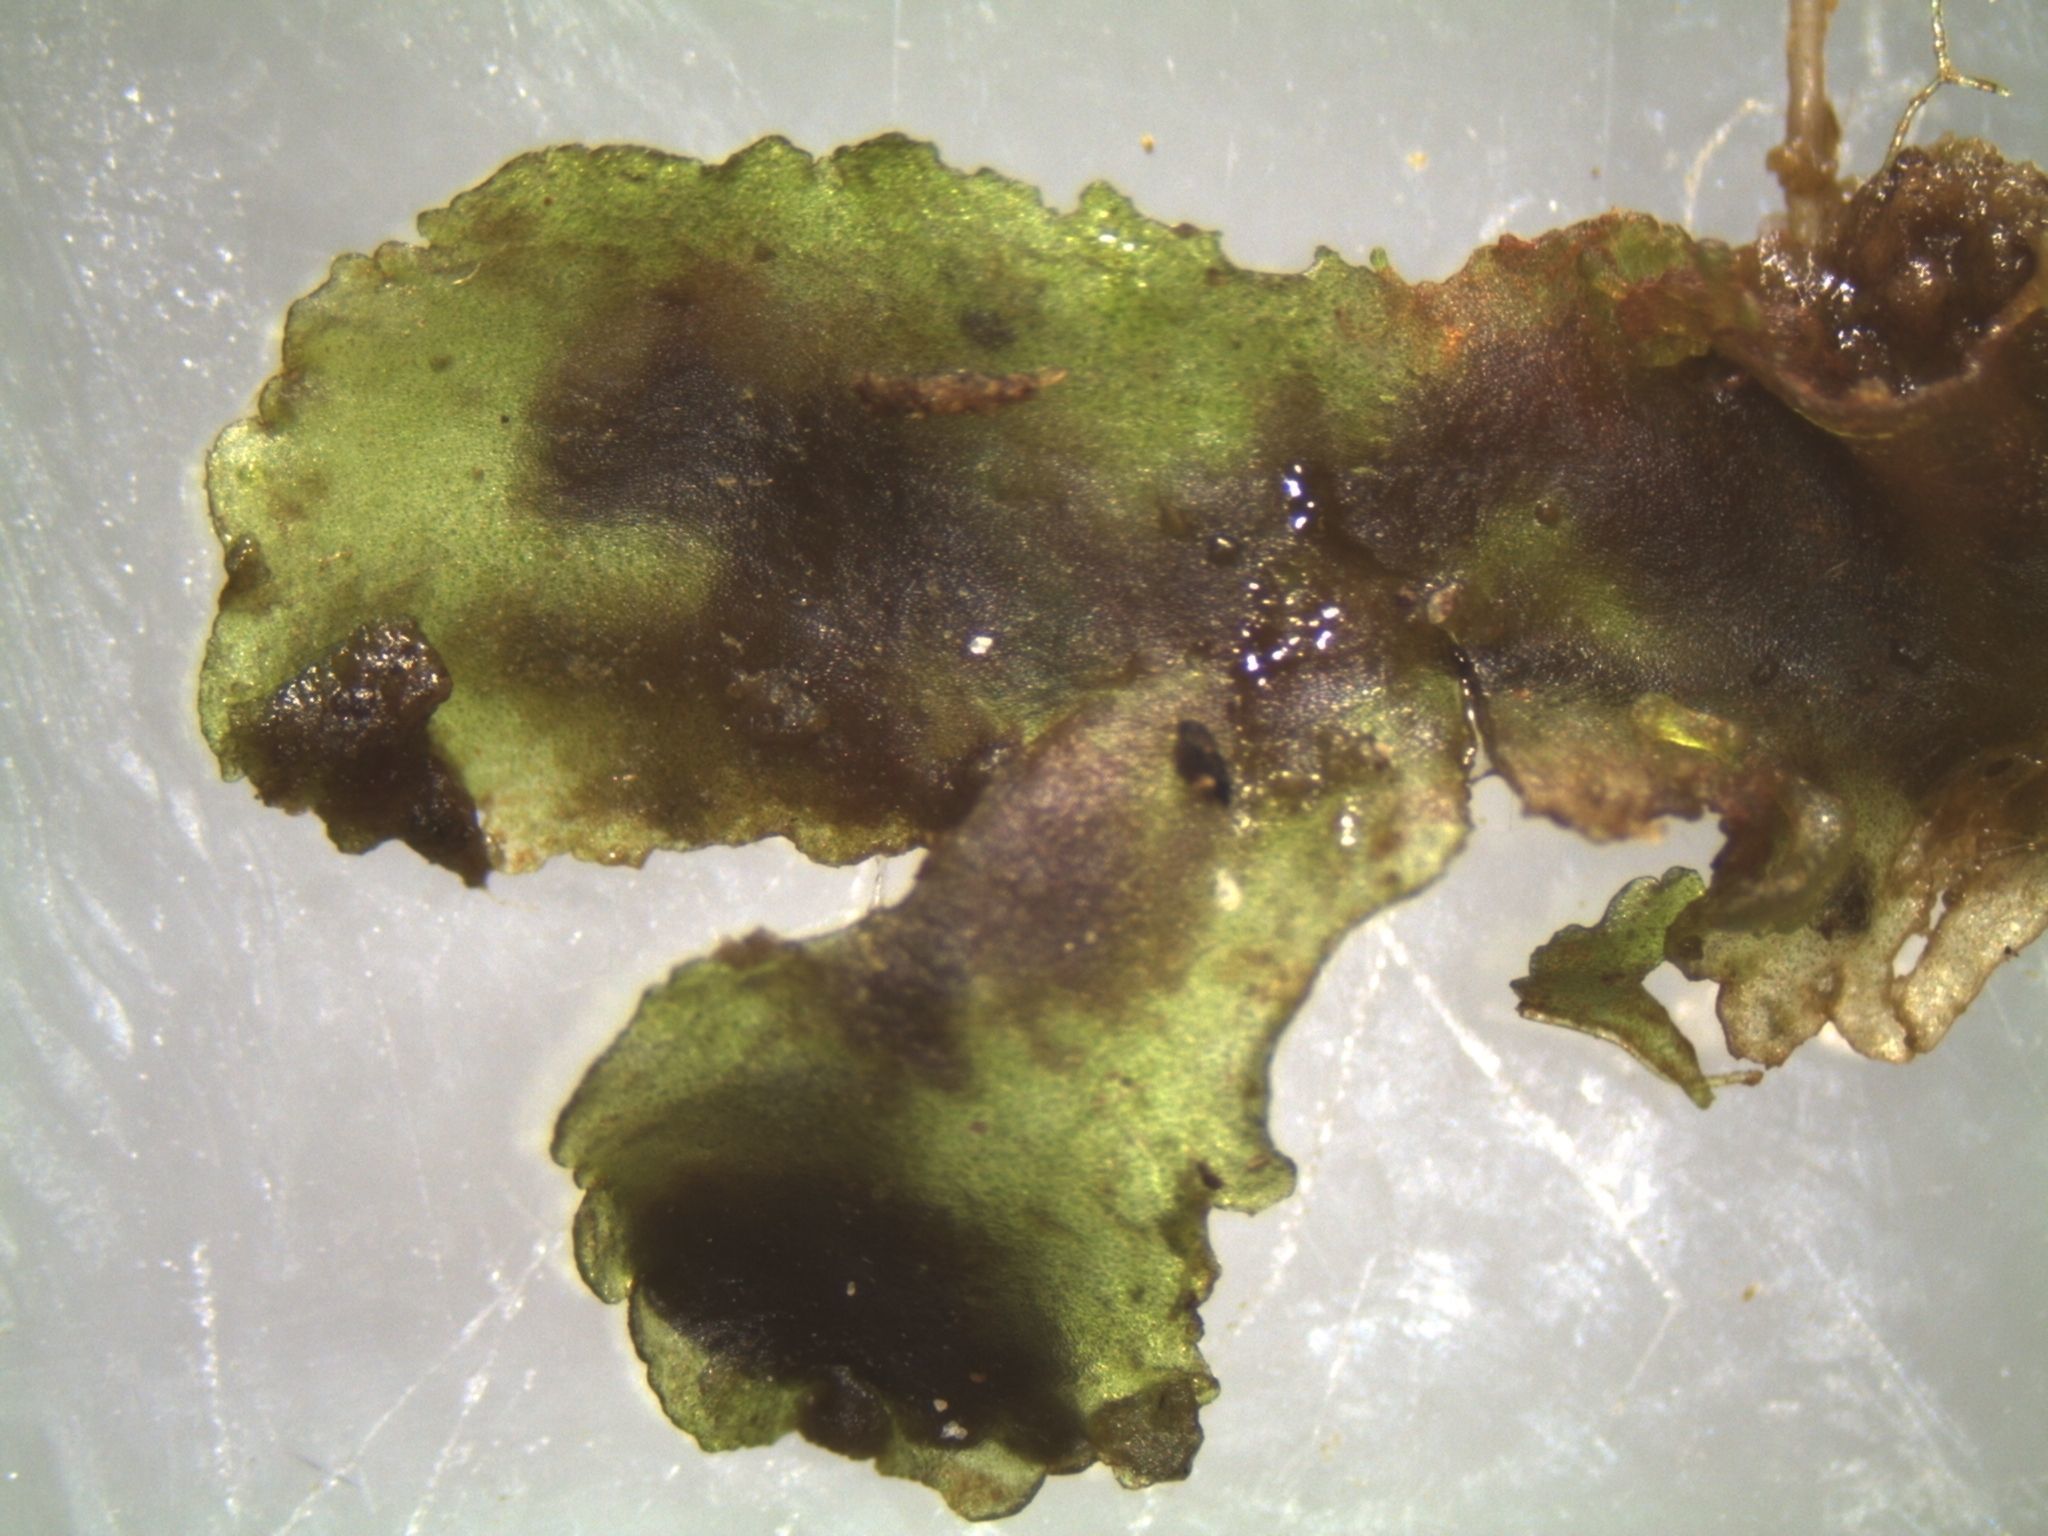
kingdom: Plantae
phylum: Anthocerotophyta
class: Anthocerotopsida
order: Anthocerotales
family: Anthocerotaceae
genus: Anthoceros
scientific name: Anthoceros laminifer
